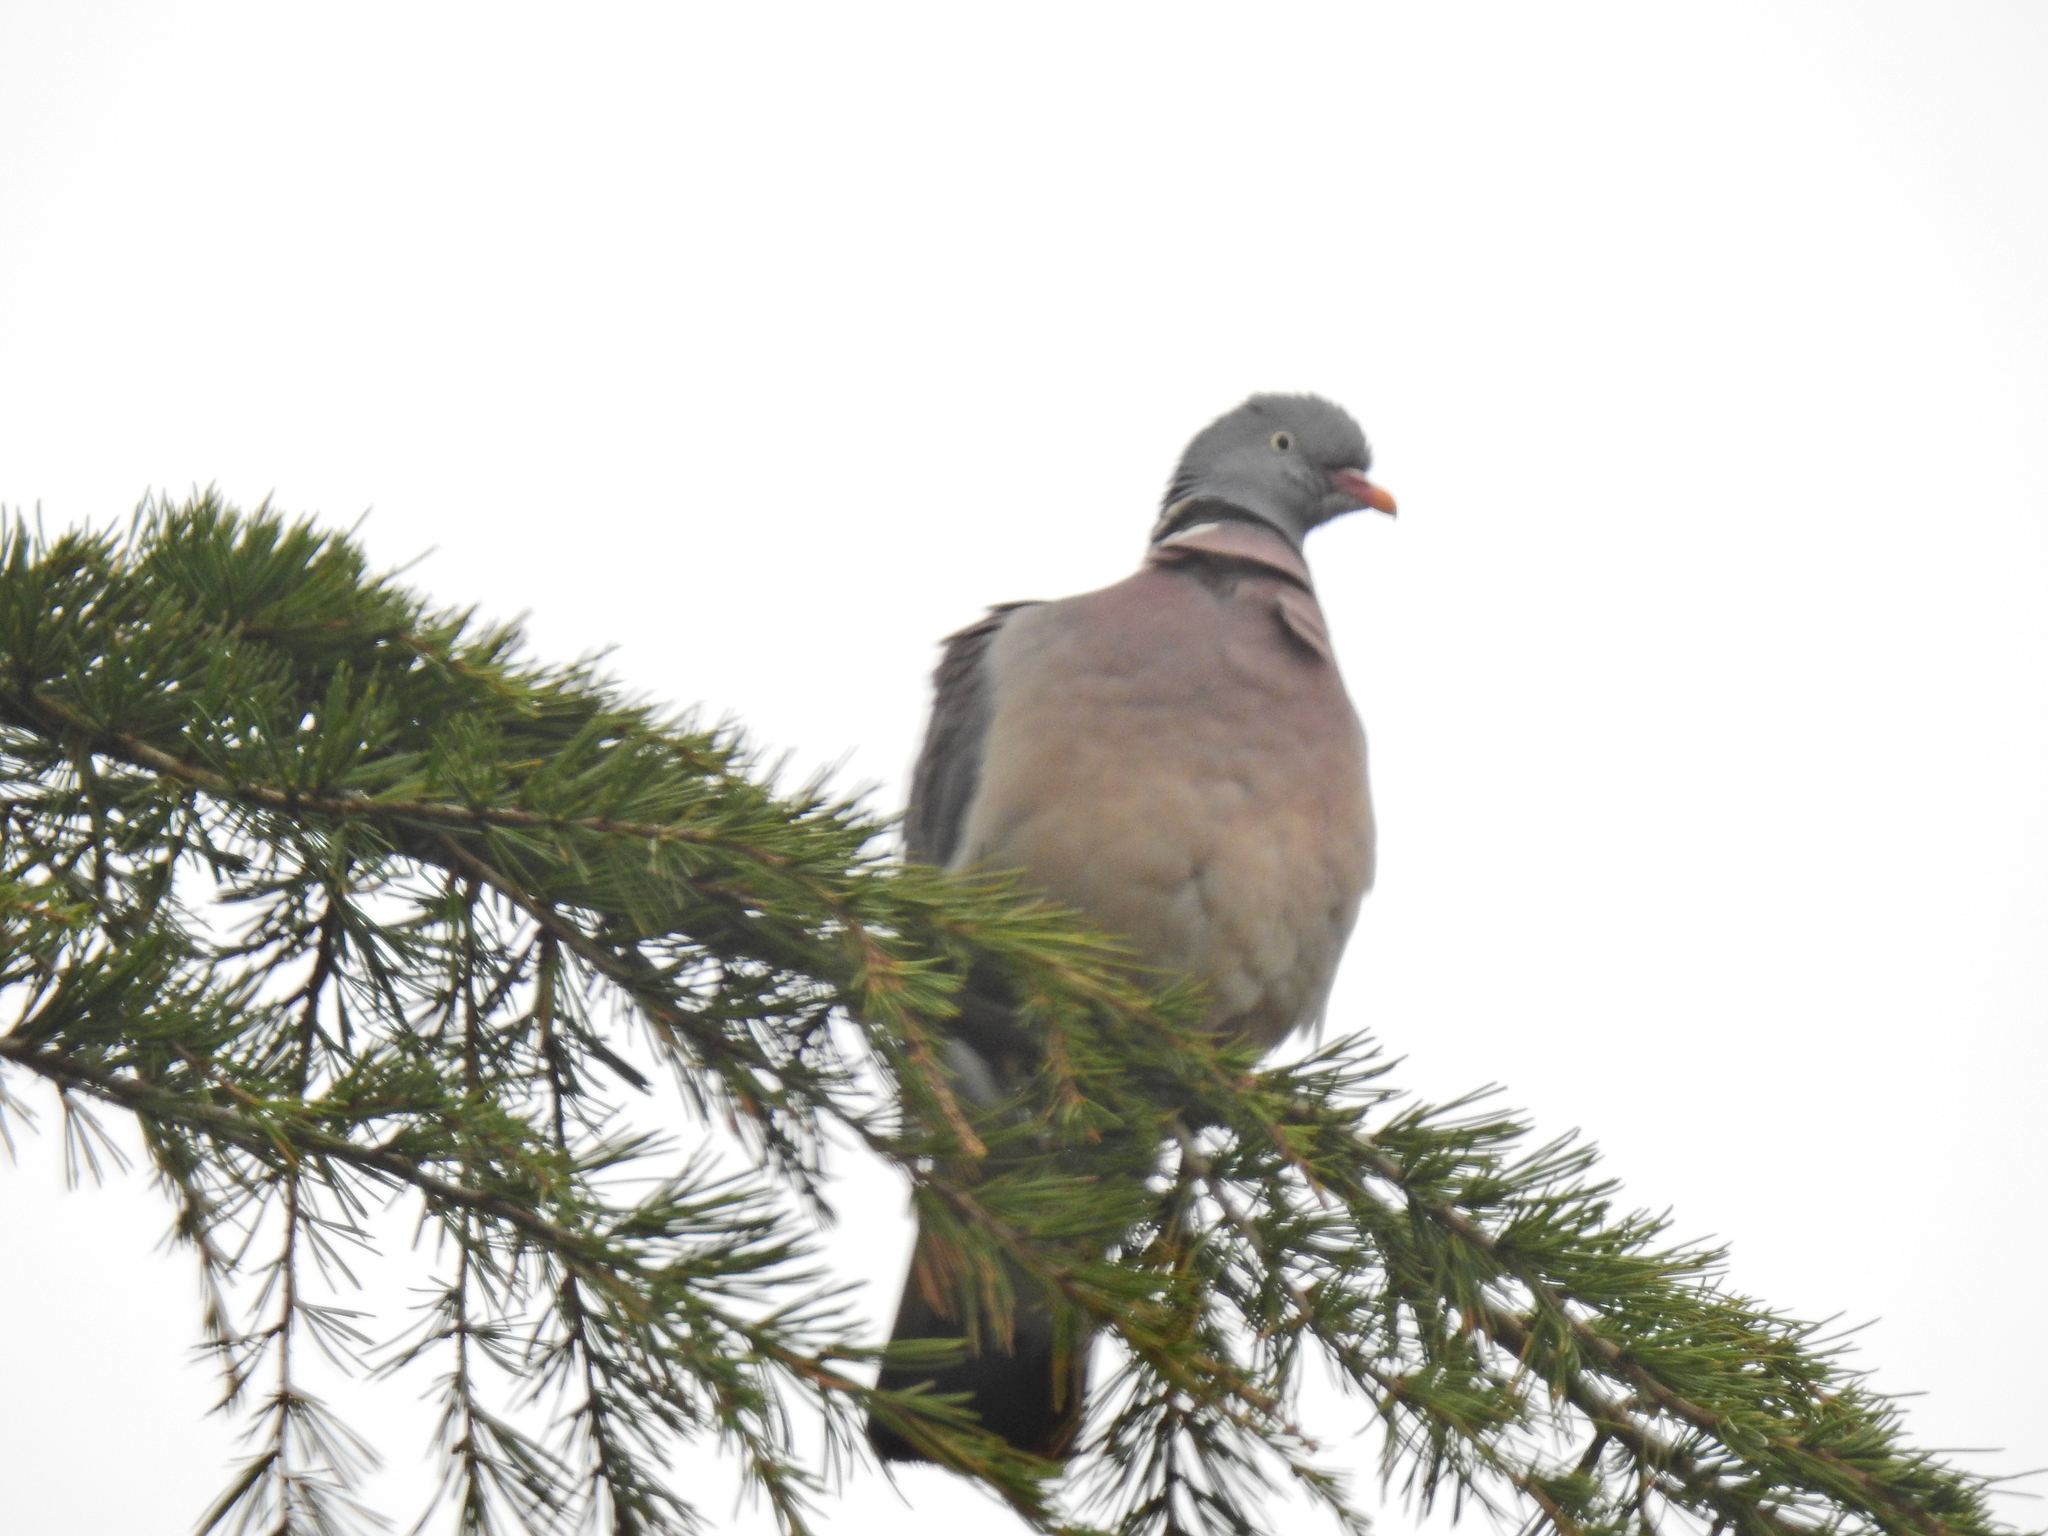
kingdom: Animalia
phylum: Chordata
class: Aves
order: Columbiformes
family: Columbidae
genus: Columba
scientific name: Columba palumbus
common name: Common wood pigeon
